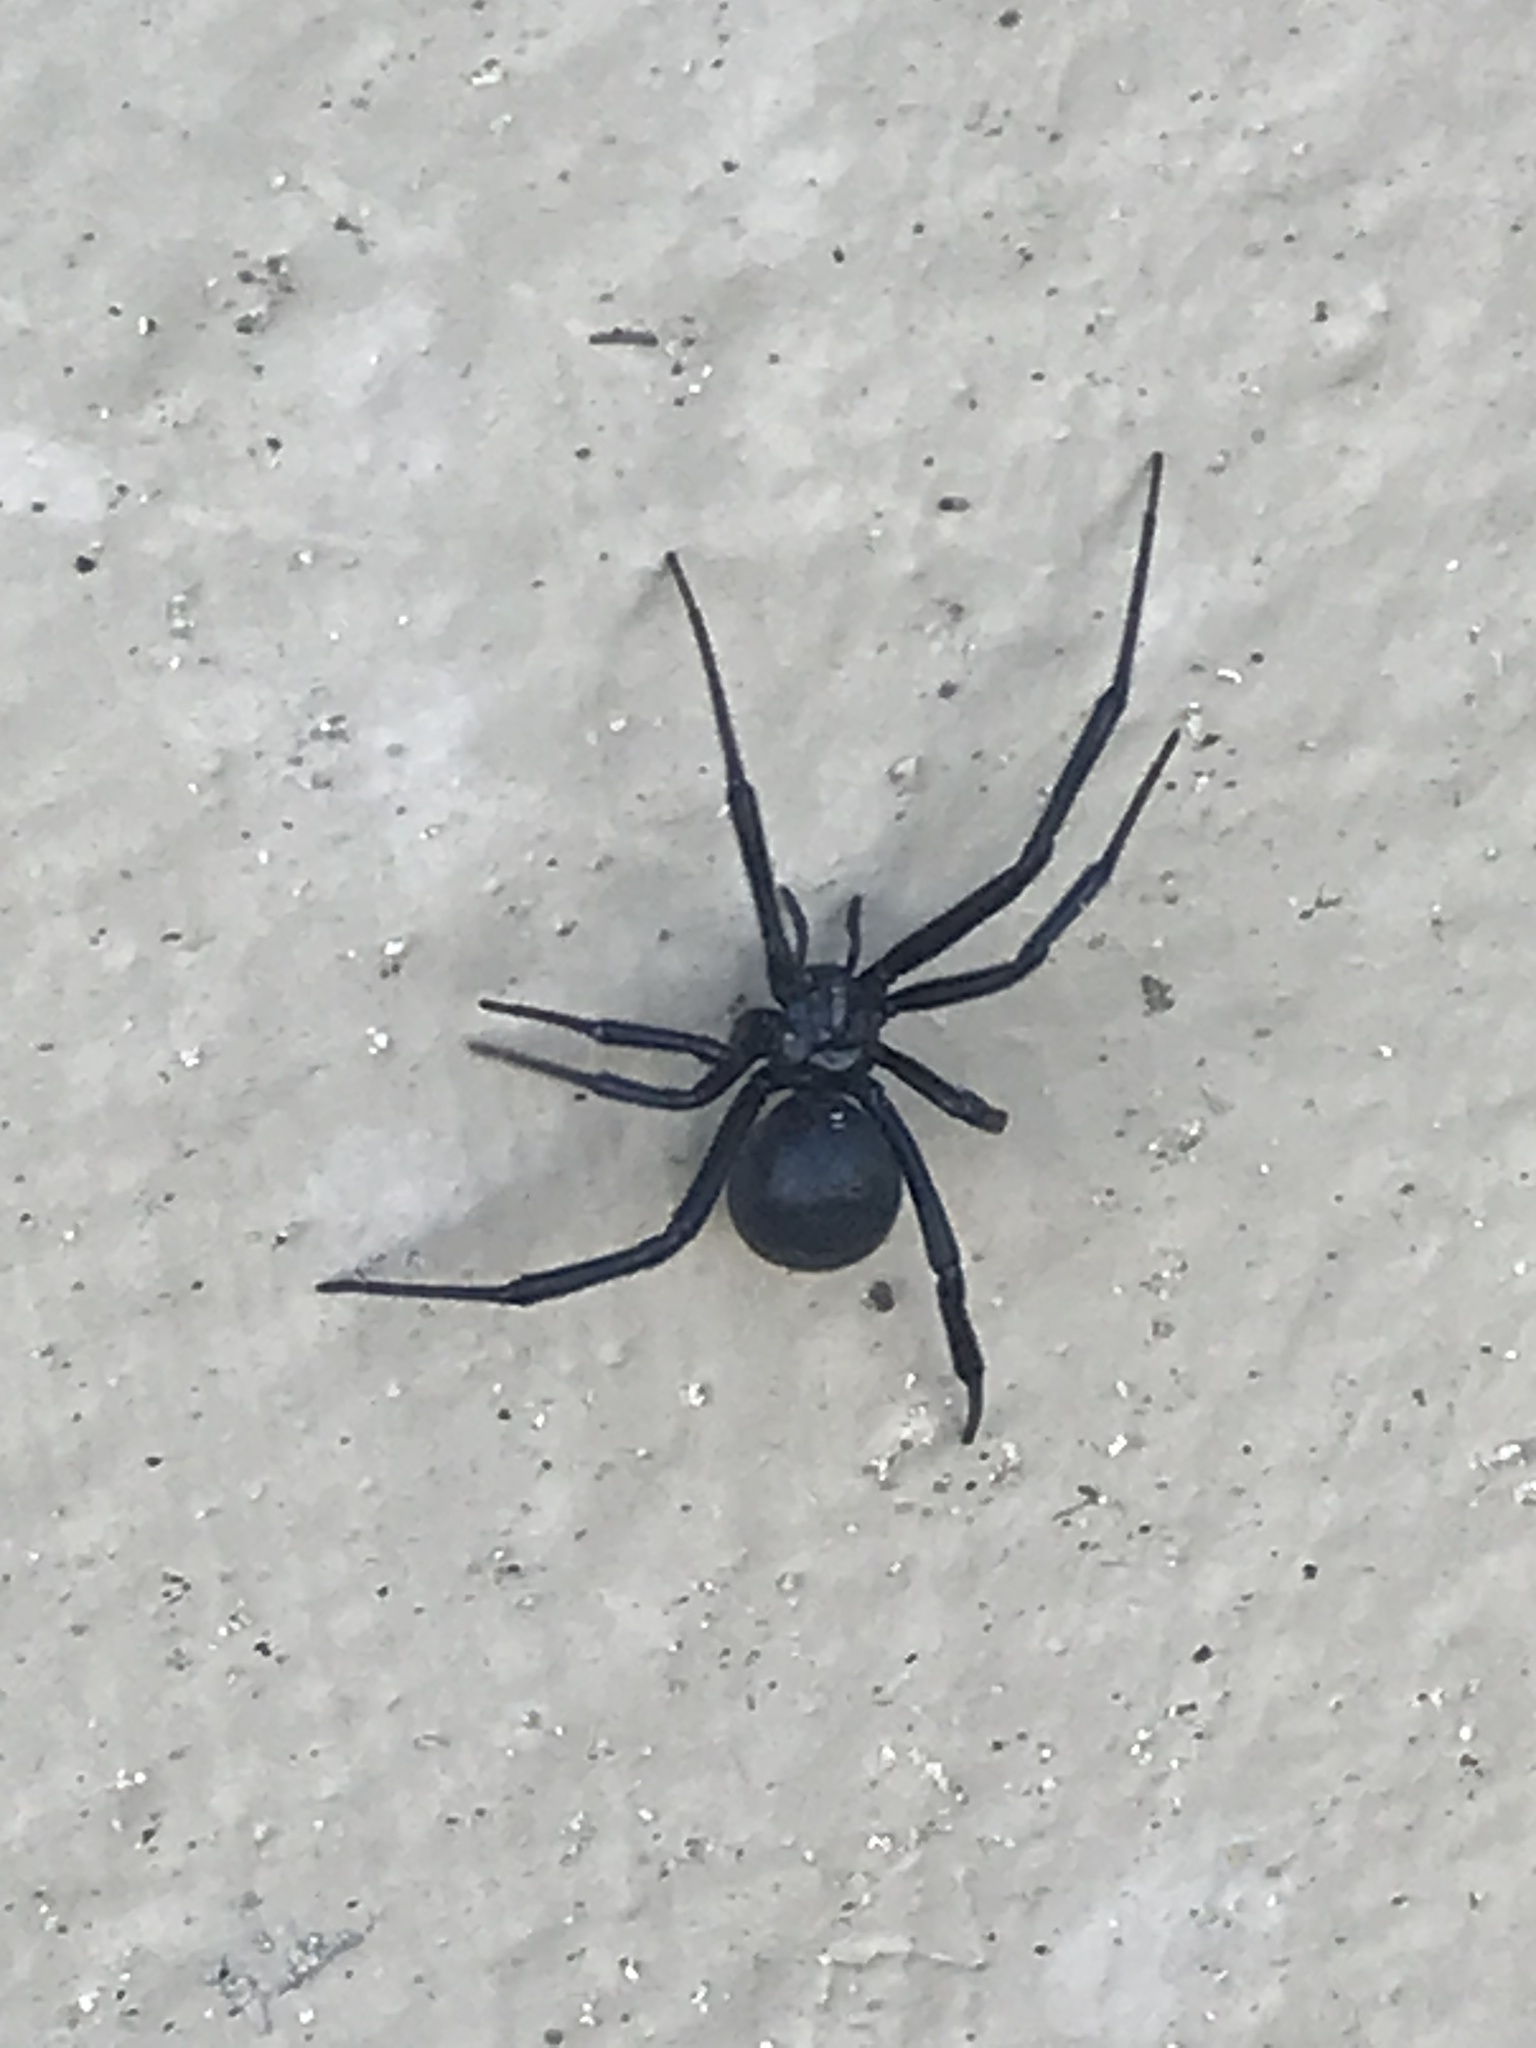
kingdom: Animalia
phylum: Arthropoda
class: Arachnida
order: Araneae
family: Theridiidae
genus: Latrodectus
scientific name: Latrodectus hesperus
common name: Western black widow
